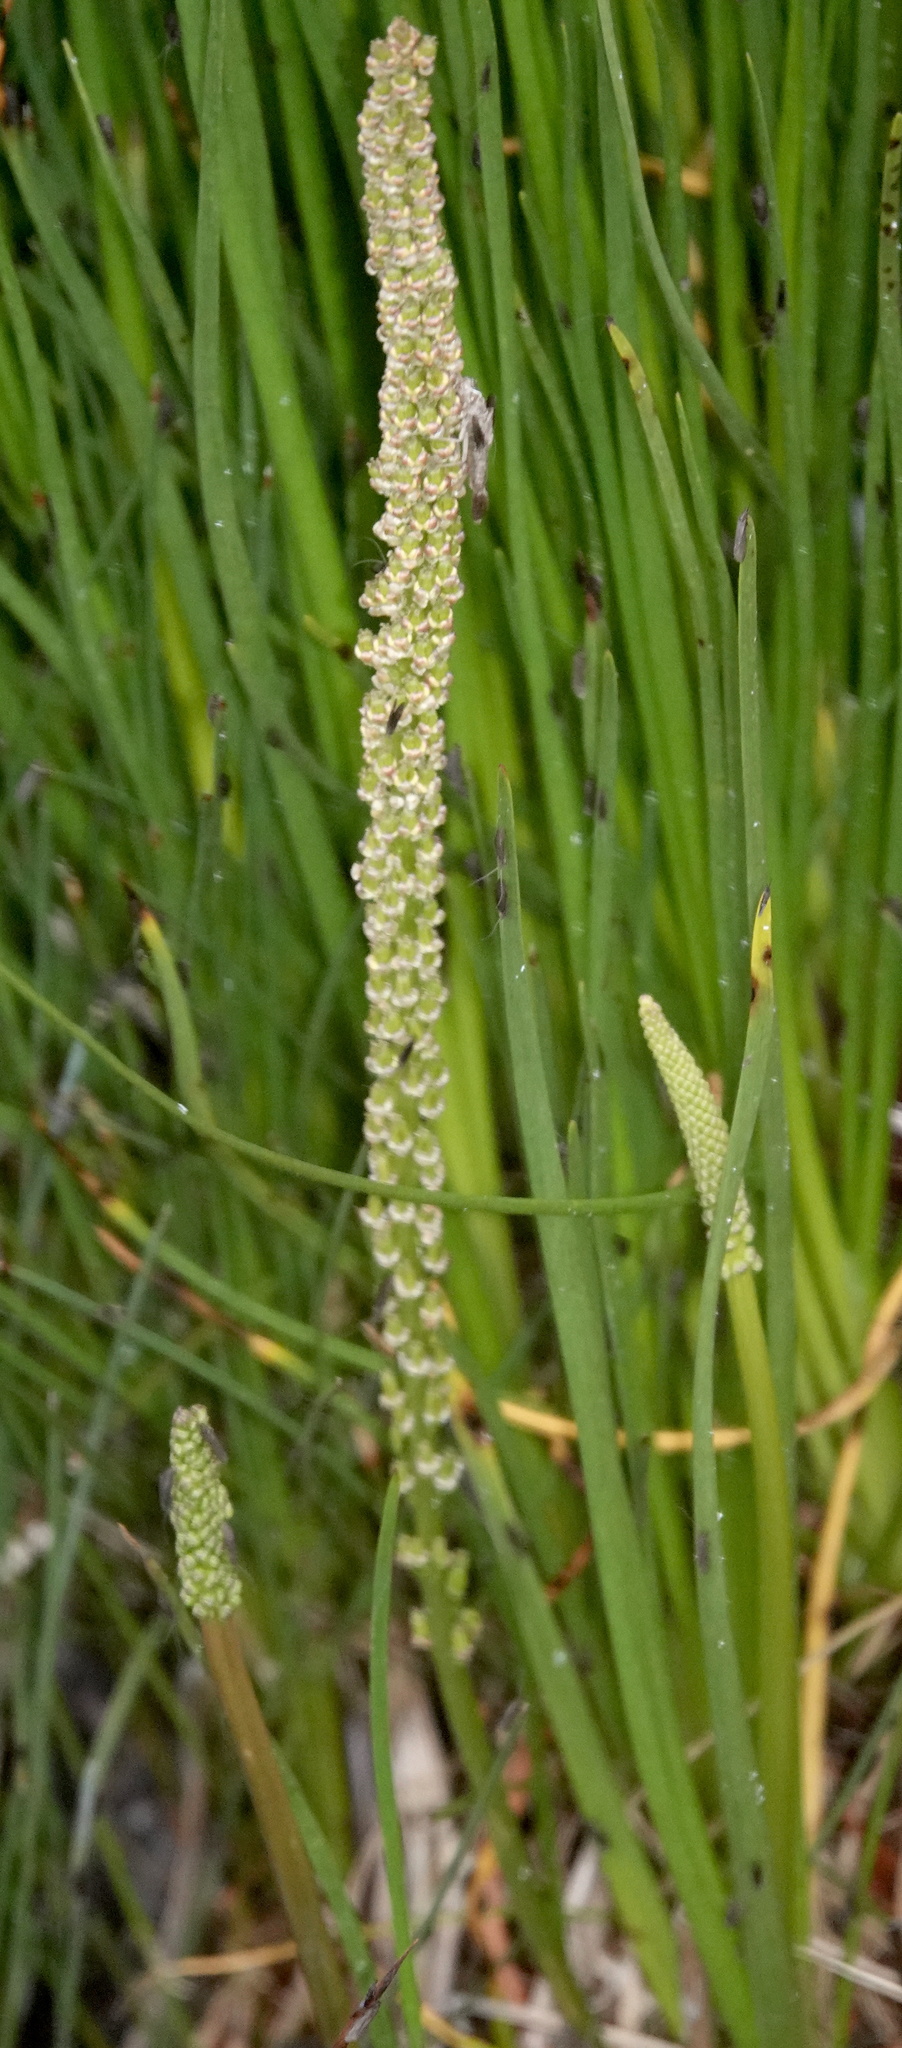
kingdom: Plantae
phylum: Tracheophyta
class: Liliopsida
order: Alismatales
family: Juncaginaceae
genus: Triglochin
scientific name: Triglochin maritima
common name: Sea arrowgrass
